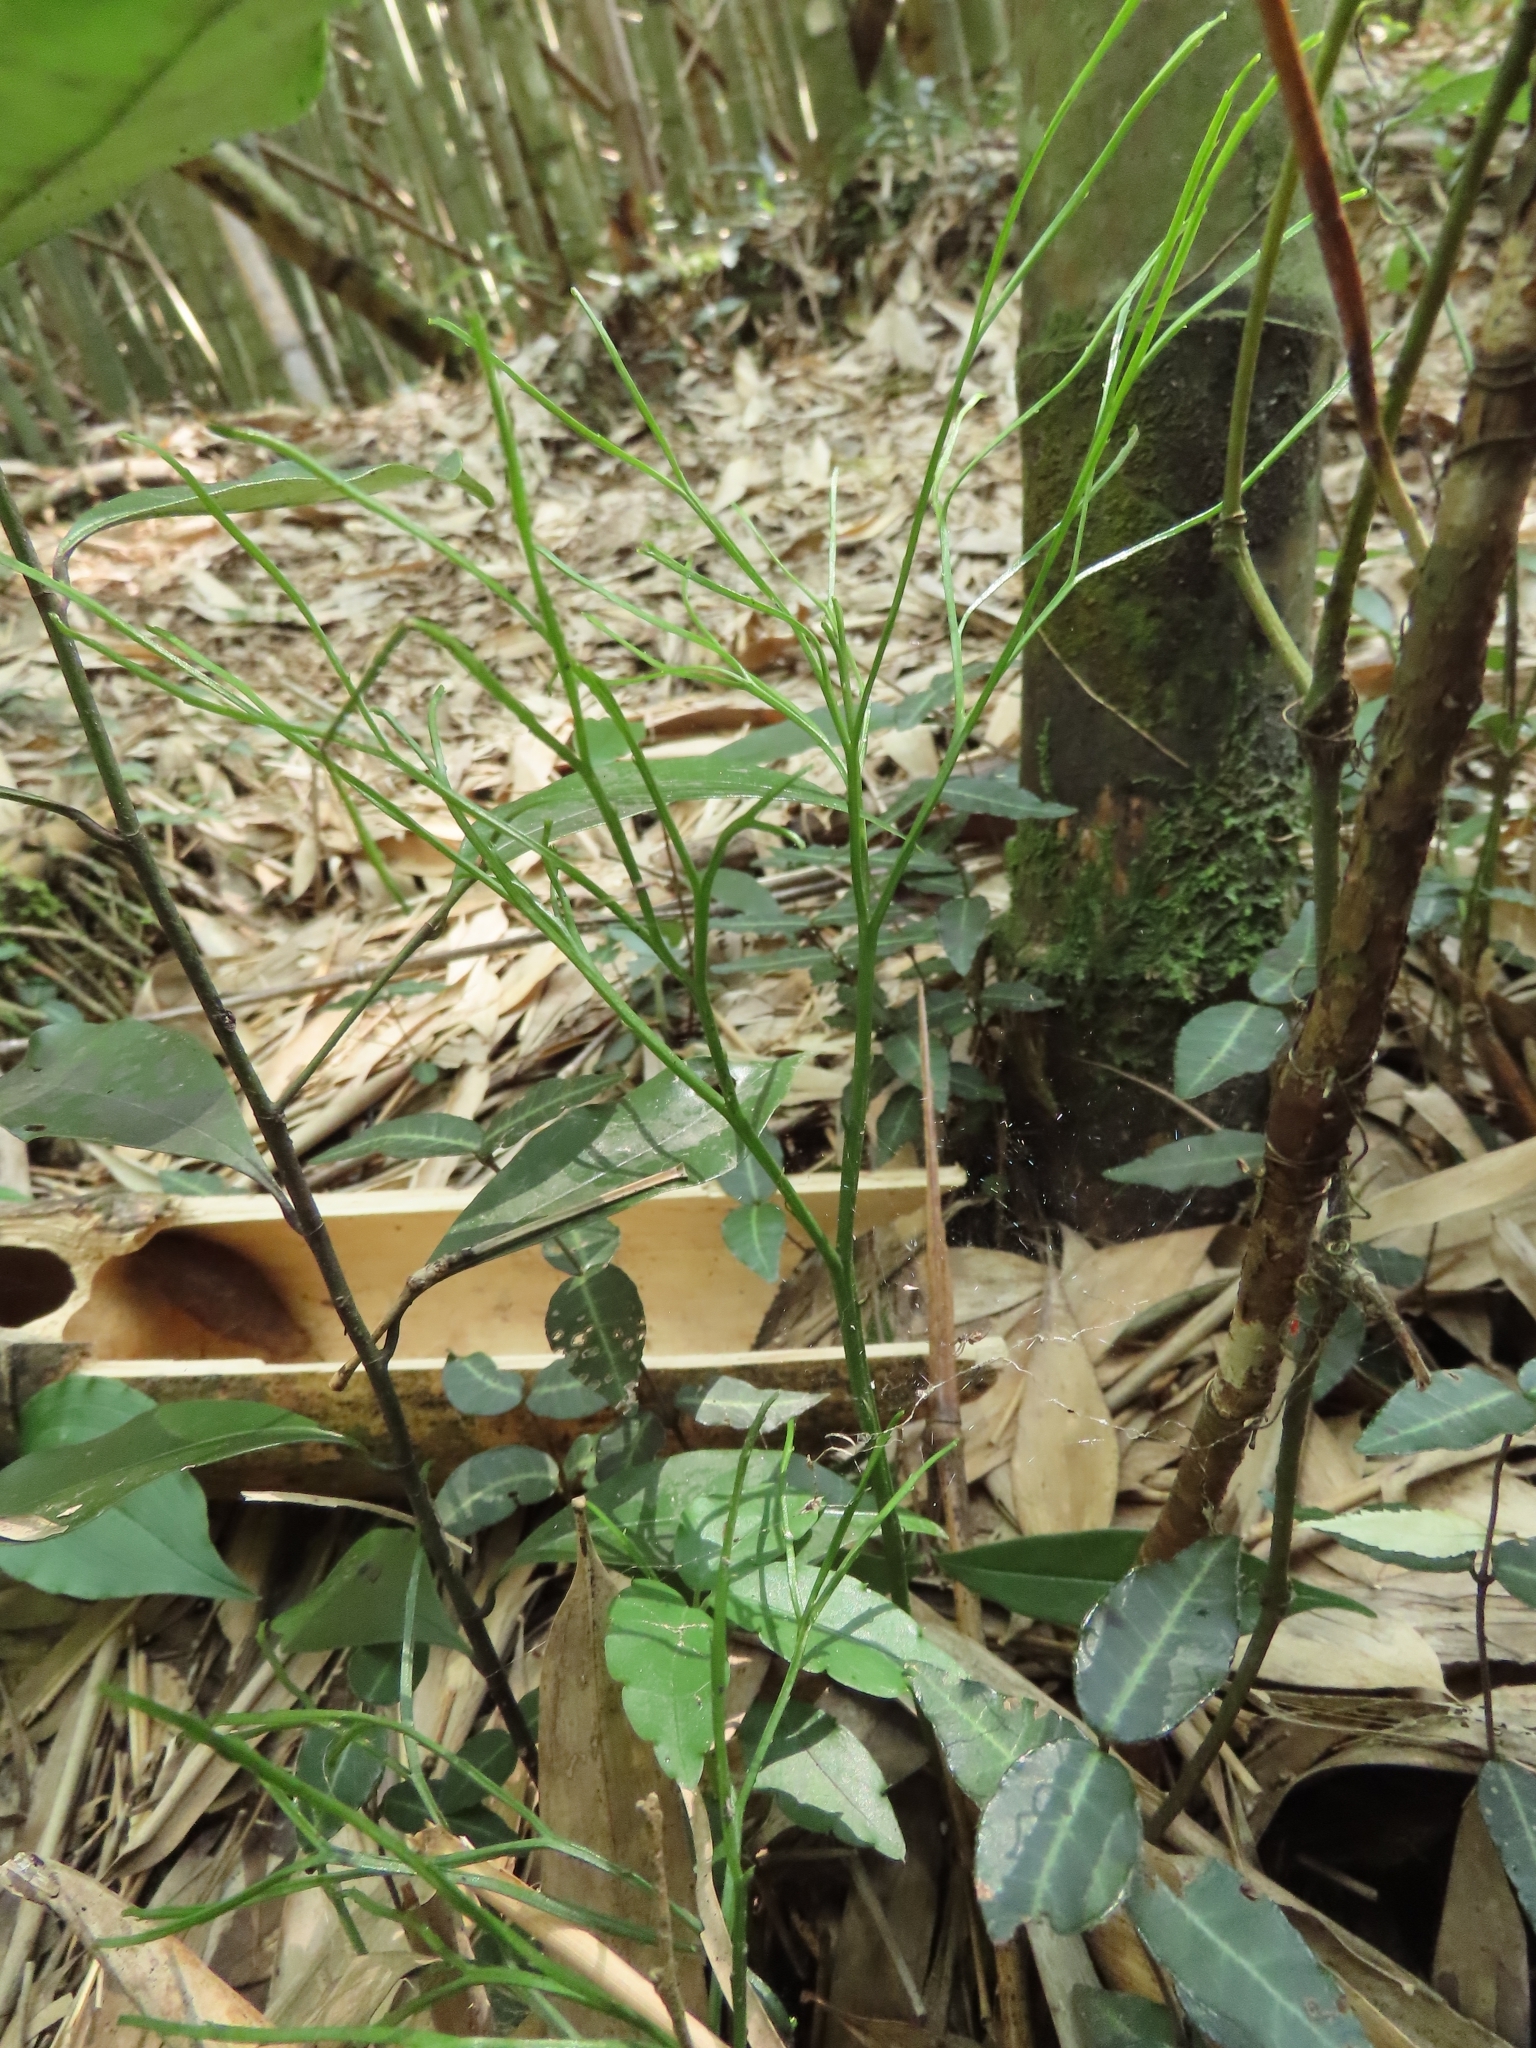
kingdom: Plantae
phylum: Tracheophyta
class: Polypodiopsida
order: Psilotales
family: Psilotaceae
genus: Psilotum
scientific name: Psilotum nudum
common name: Skeleton fork fern
